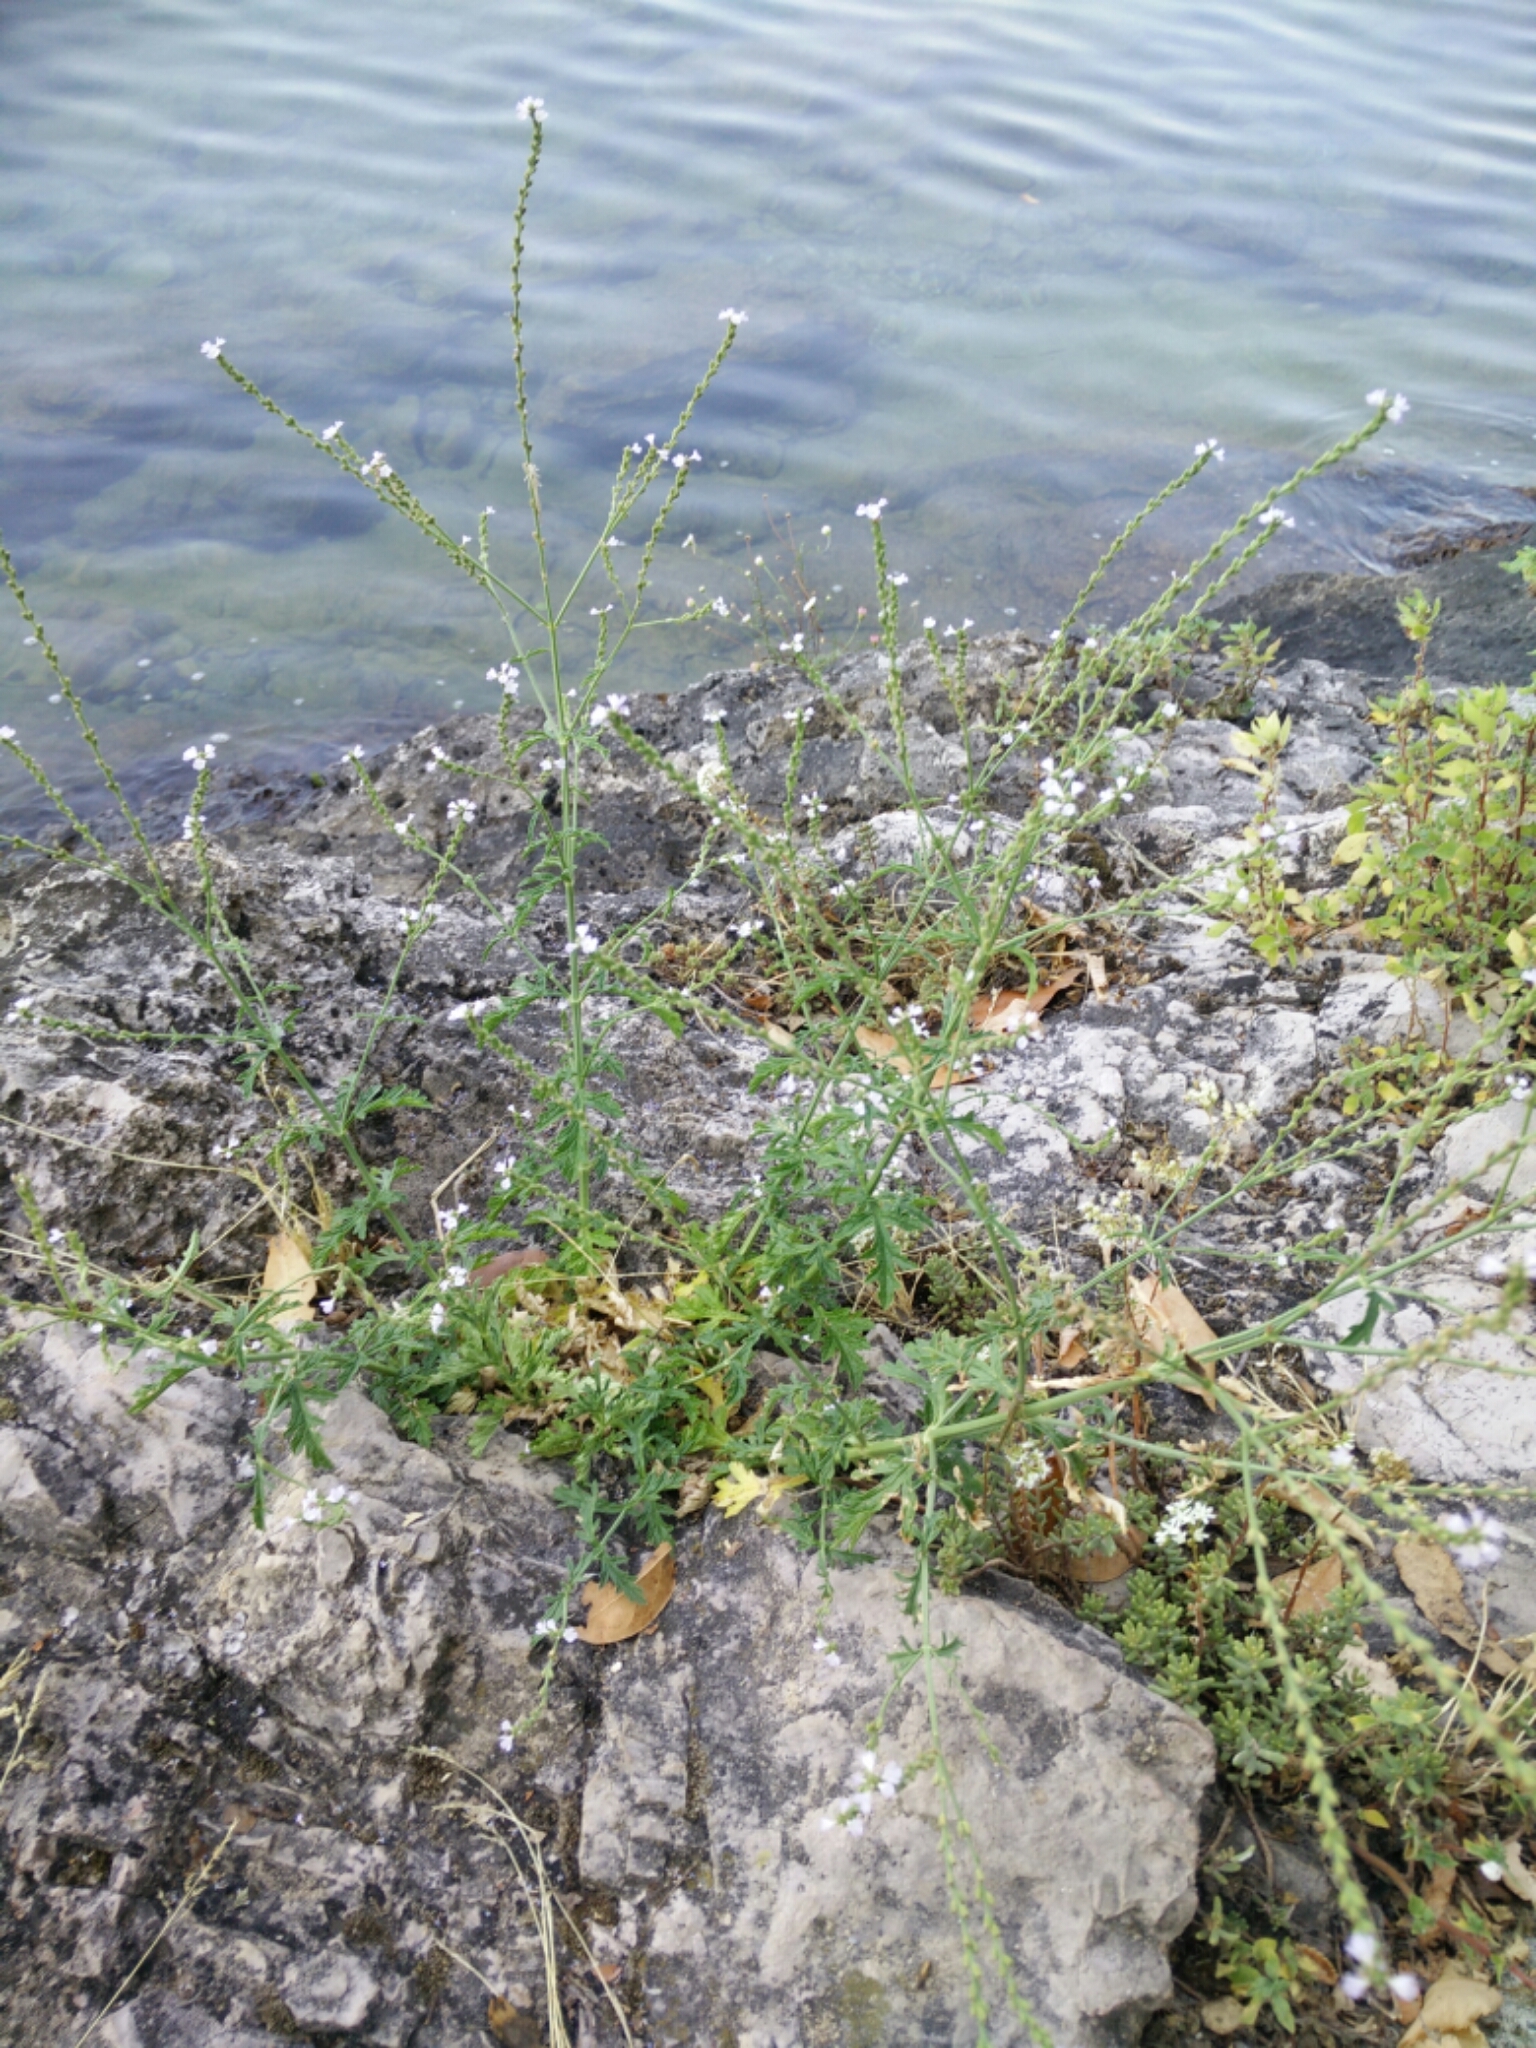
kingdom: Plantae
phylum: Tracheophyta
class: Magnoliopsida
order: Lamiales
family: Verbenaceae
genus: Verbena
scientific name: Verbena officinalis
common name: Vervain
